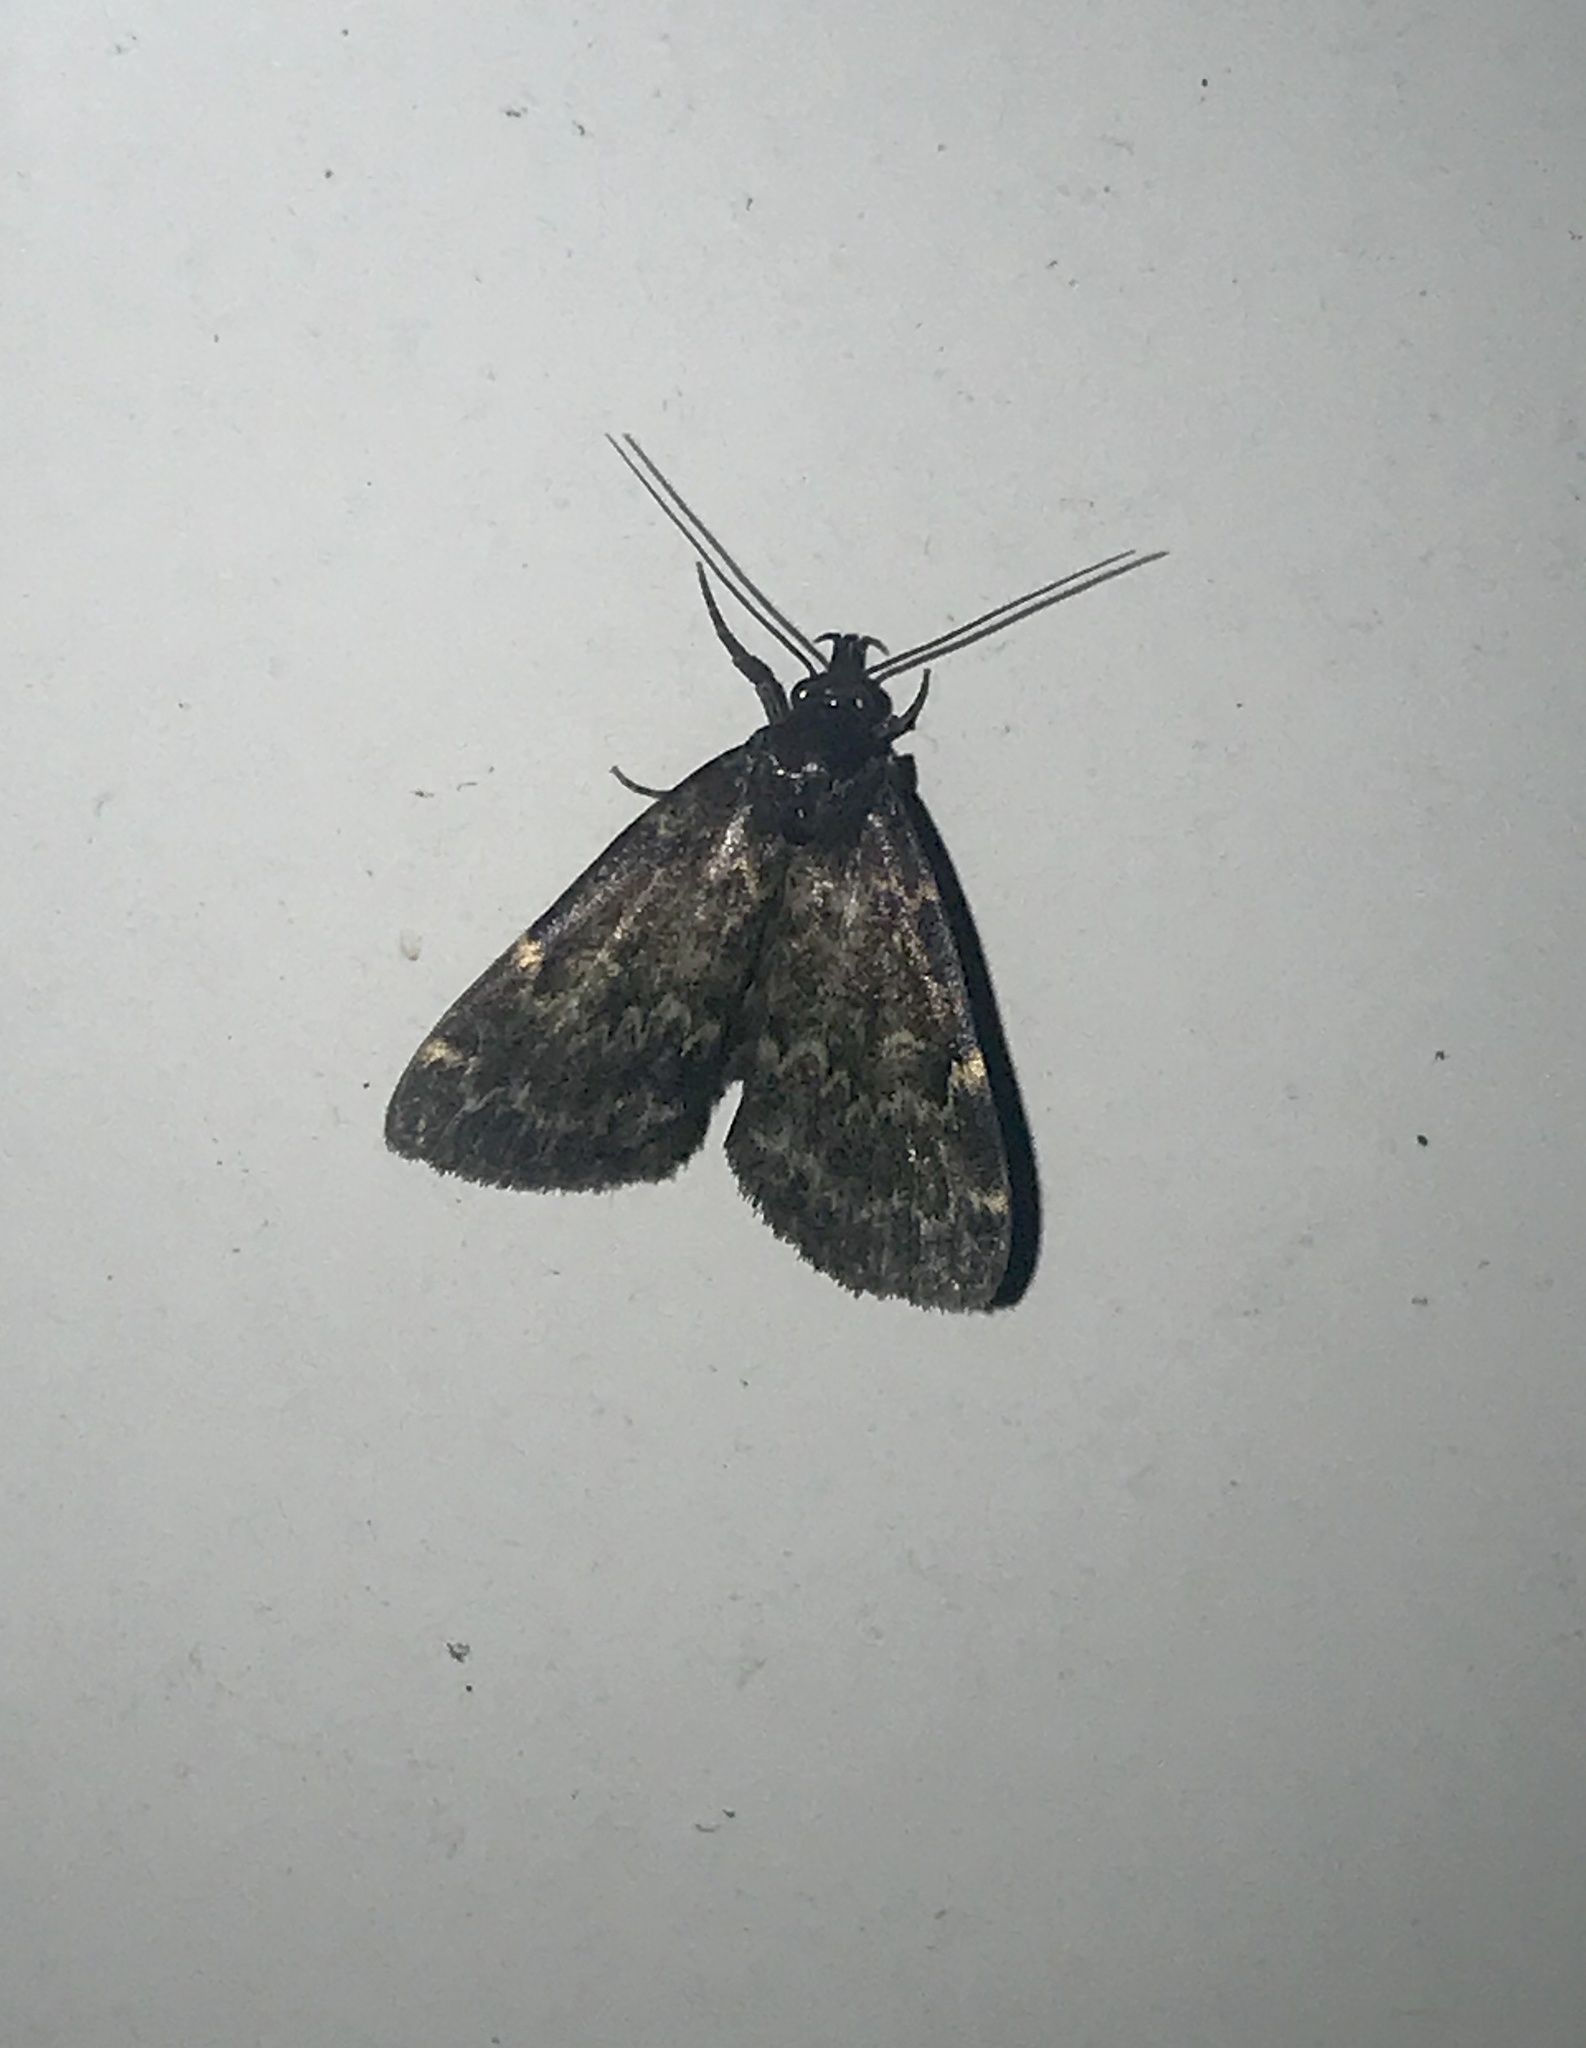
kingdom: Animalia
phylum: Arthropoda
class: Insecta
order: Lepidoptera
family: Erebidae
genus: Idia
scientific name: Idia lubricalis
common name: Twin-striped tabby
